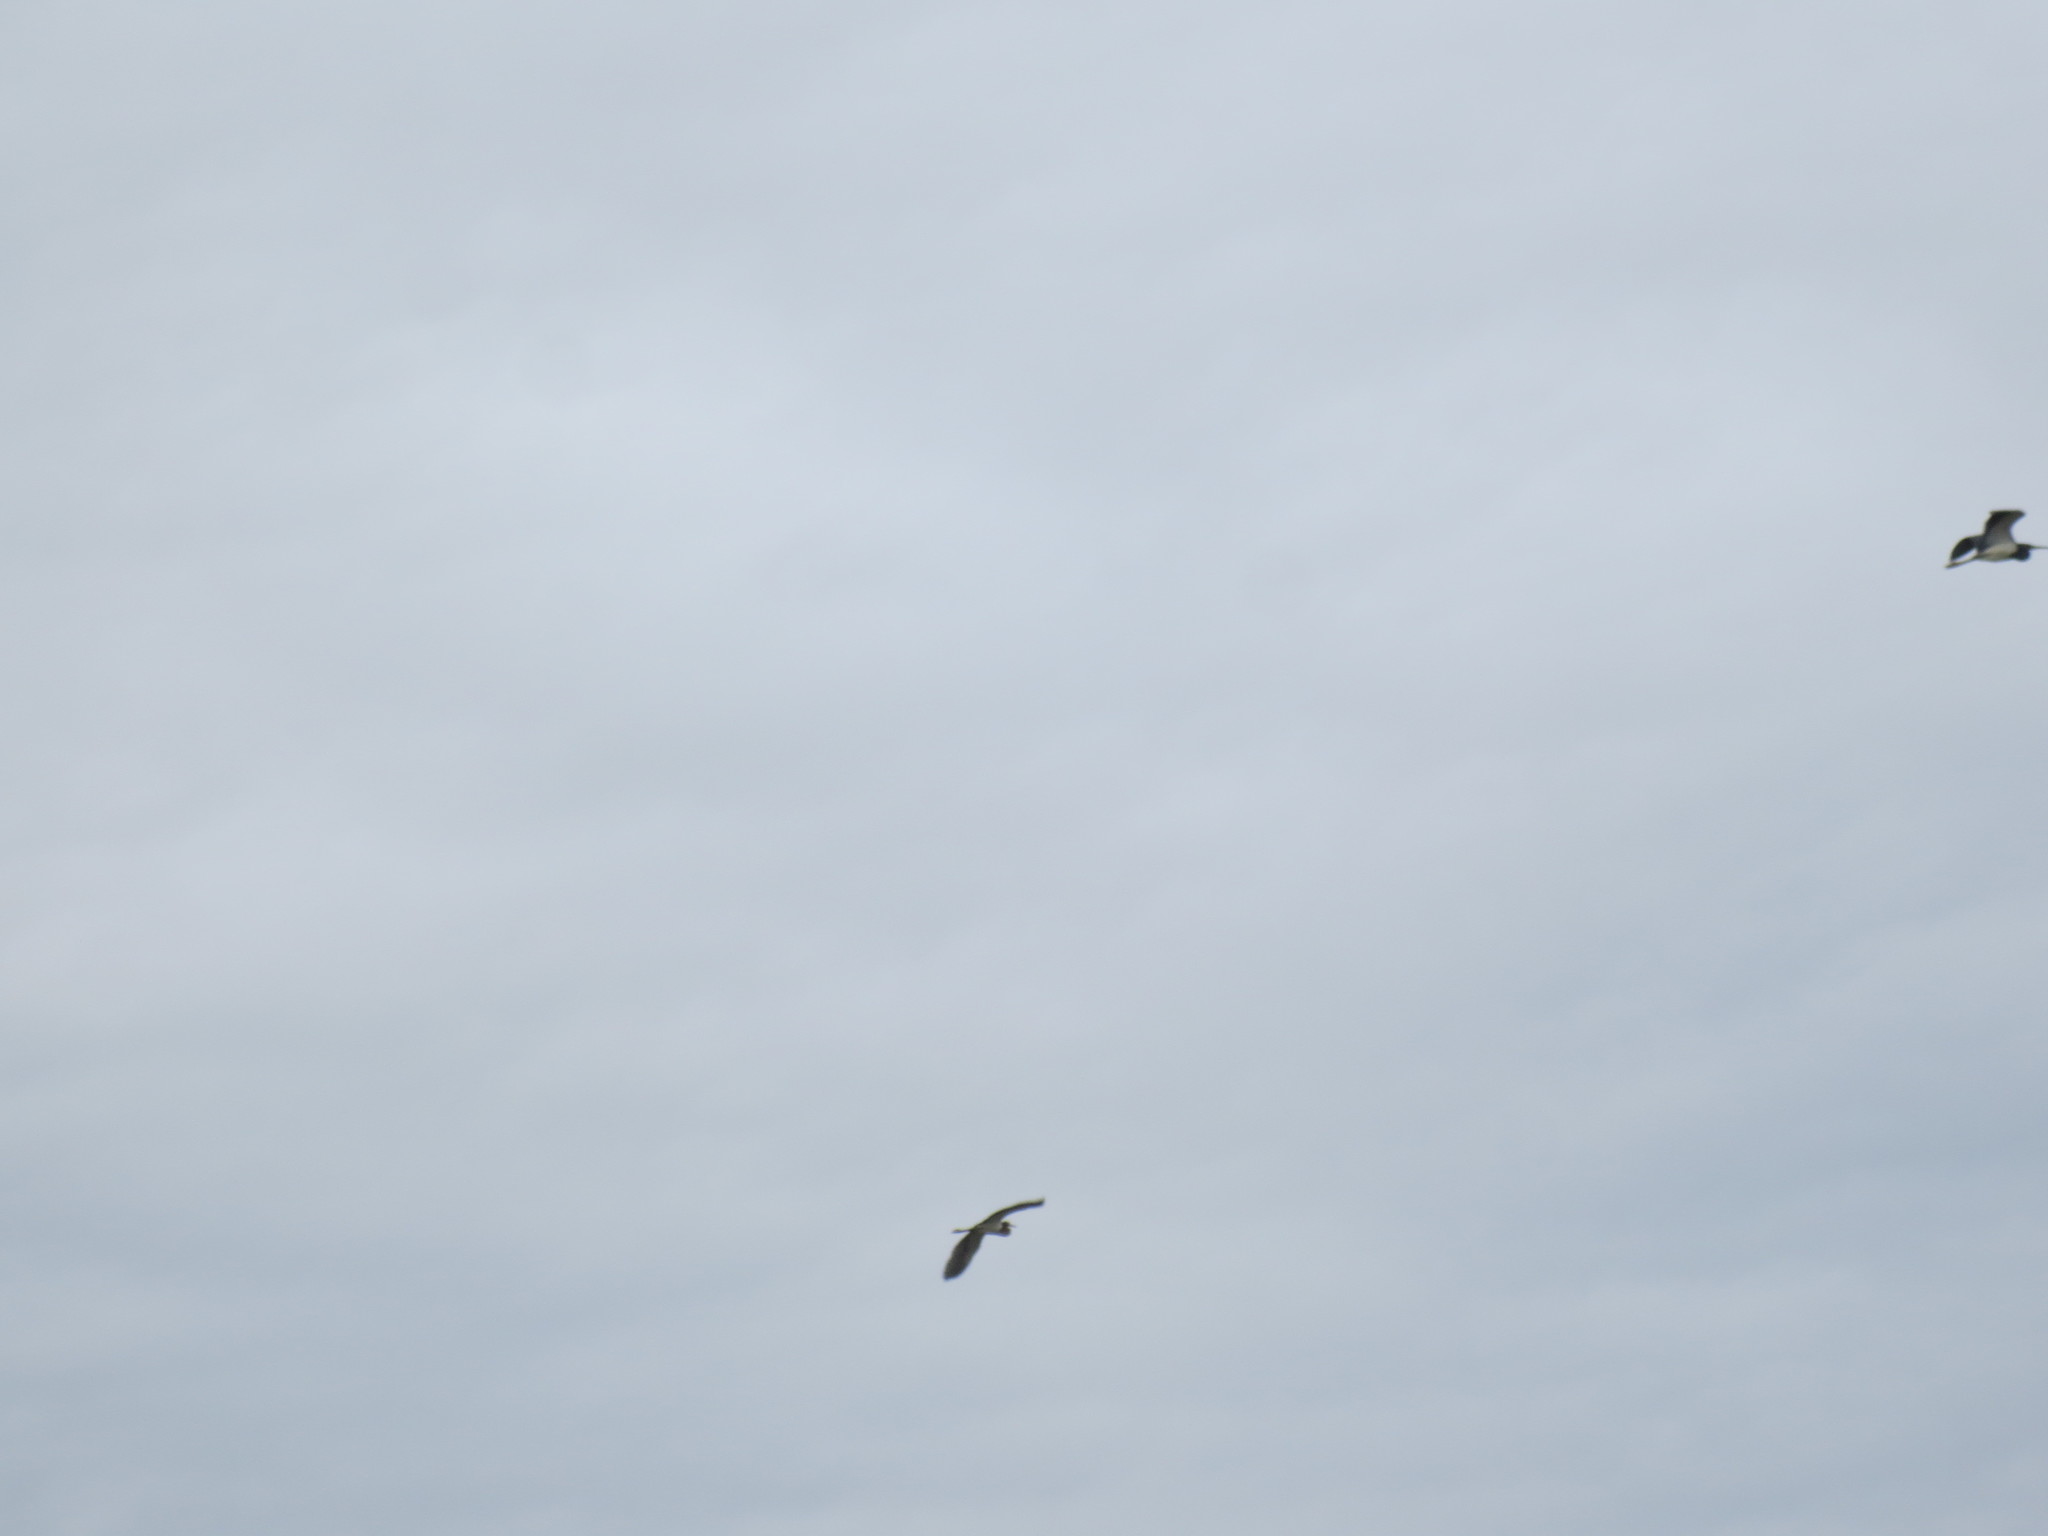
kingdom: Animalia
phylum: Chordata
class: Aves
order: Pelecaniformes
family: Ardeidae
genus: Egretta
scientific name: Egretta tricolor
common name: Tricolored heron
